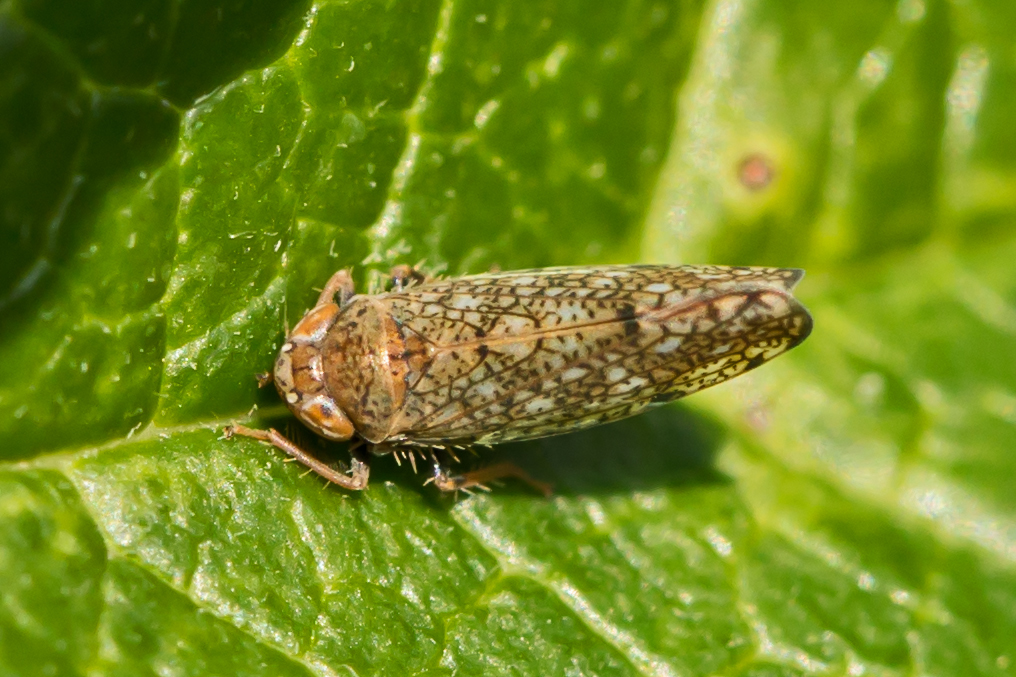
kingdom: Animalia
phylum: Arthropoda
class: Insecta
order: Hemiptera
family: Cicadellidae
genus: Orientus
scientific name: Orientus ishidae
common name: Japanese leafhopper
